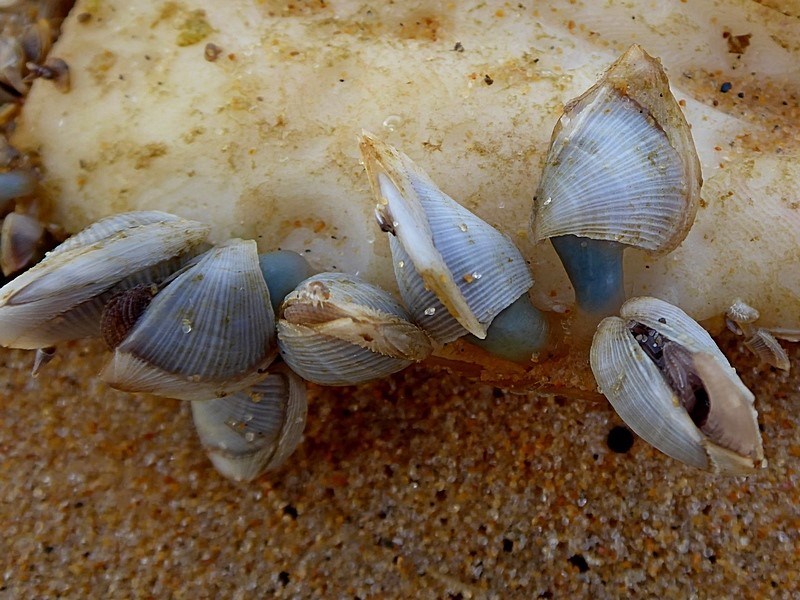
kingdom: Animalia
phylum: Arthropoda
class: Maxillopoda
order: Pedunculata
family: Lepadidae
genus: Lepas
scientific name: Lepas pectinata
